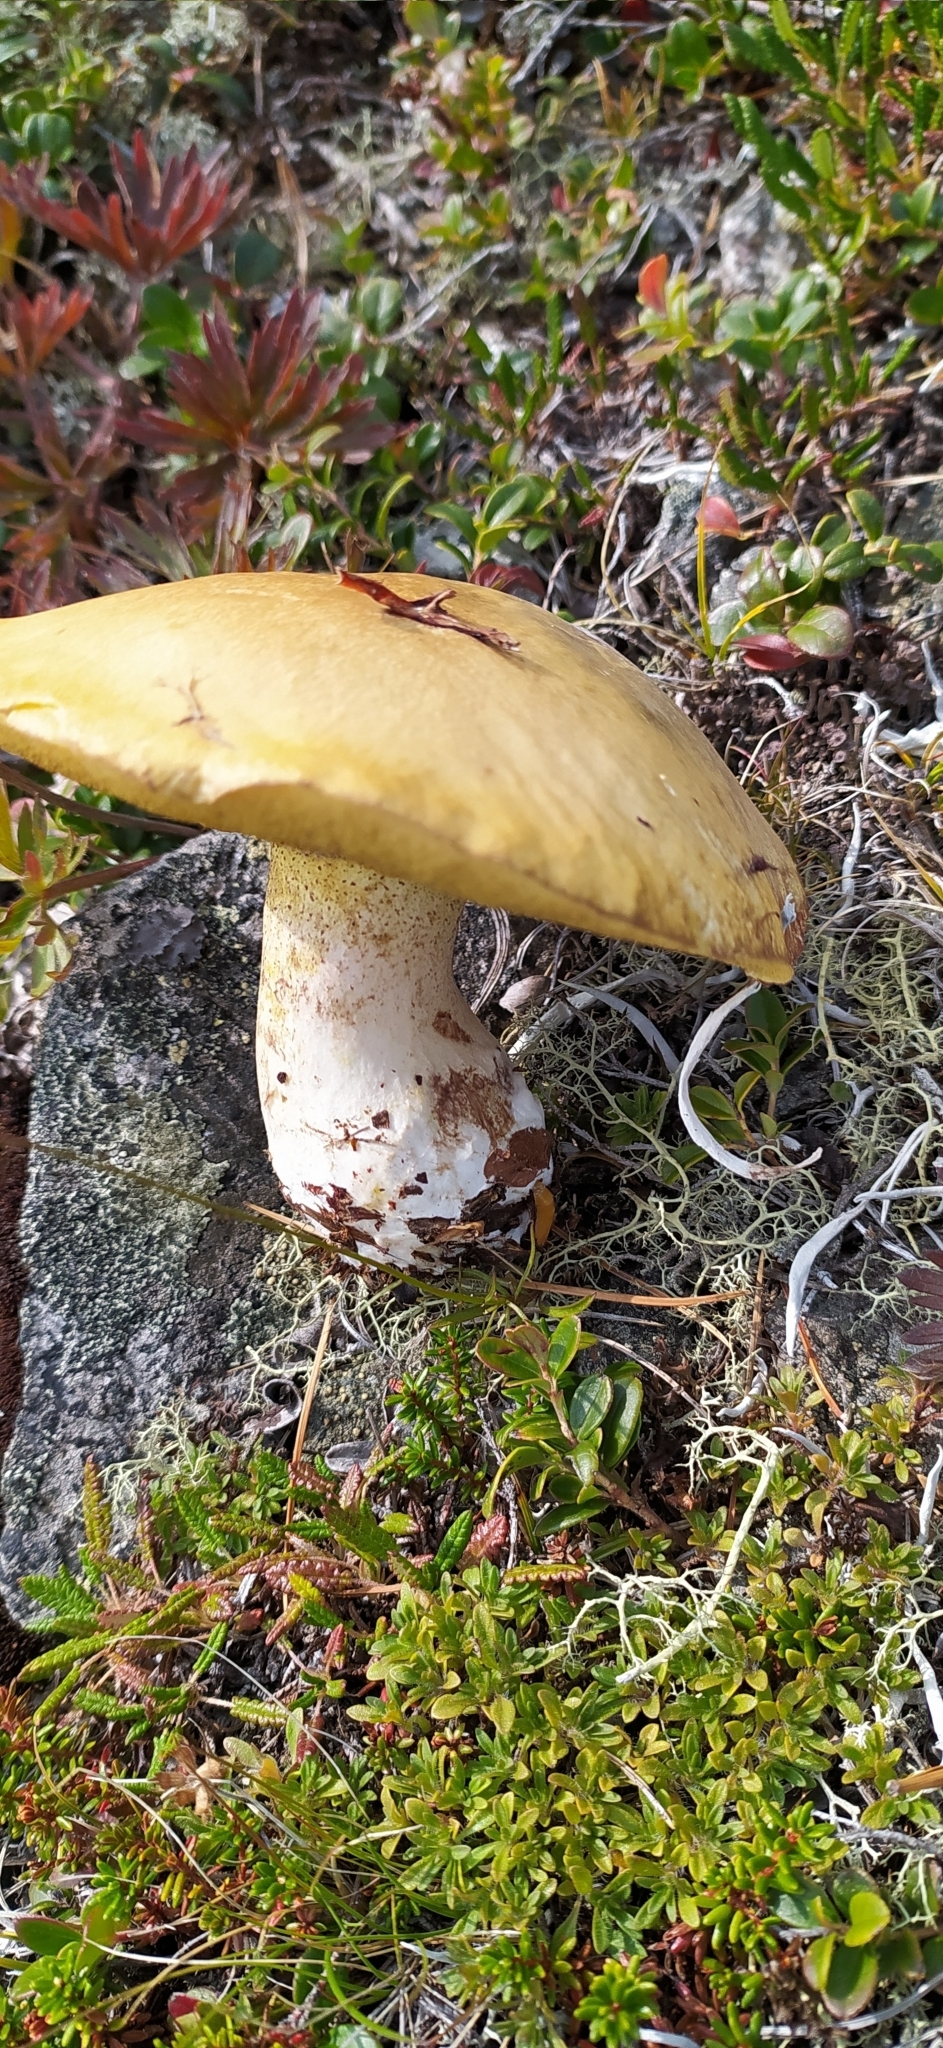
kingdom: Fungi
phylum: Basidiomycota
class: Agaricomycetes
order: Boletales
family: Suillaceae
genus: Suillus
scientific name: Suillus luteus
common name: Slippery jack
